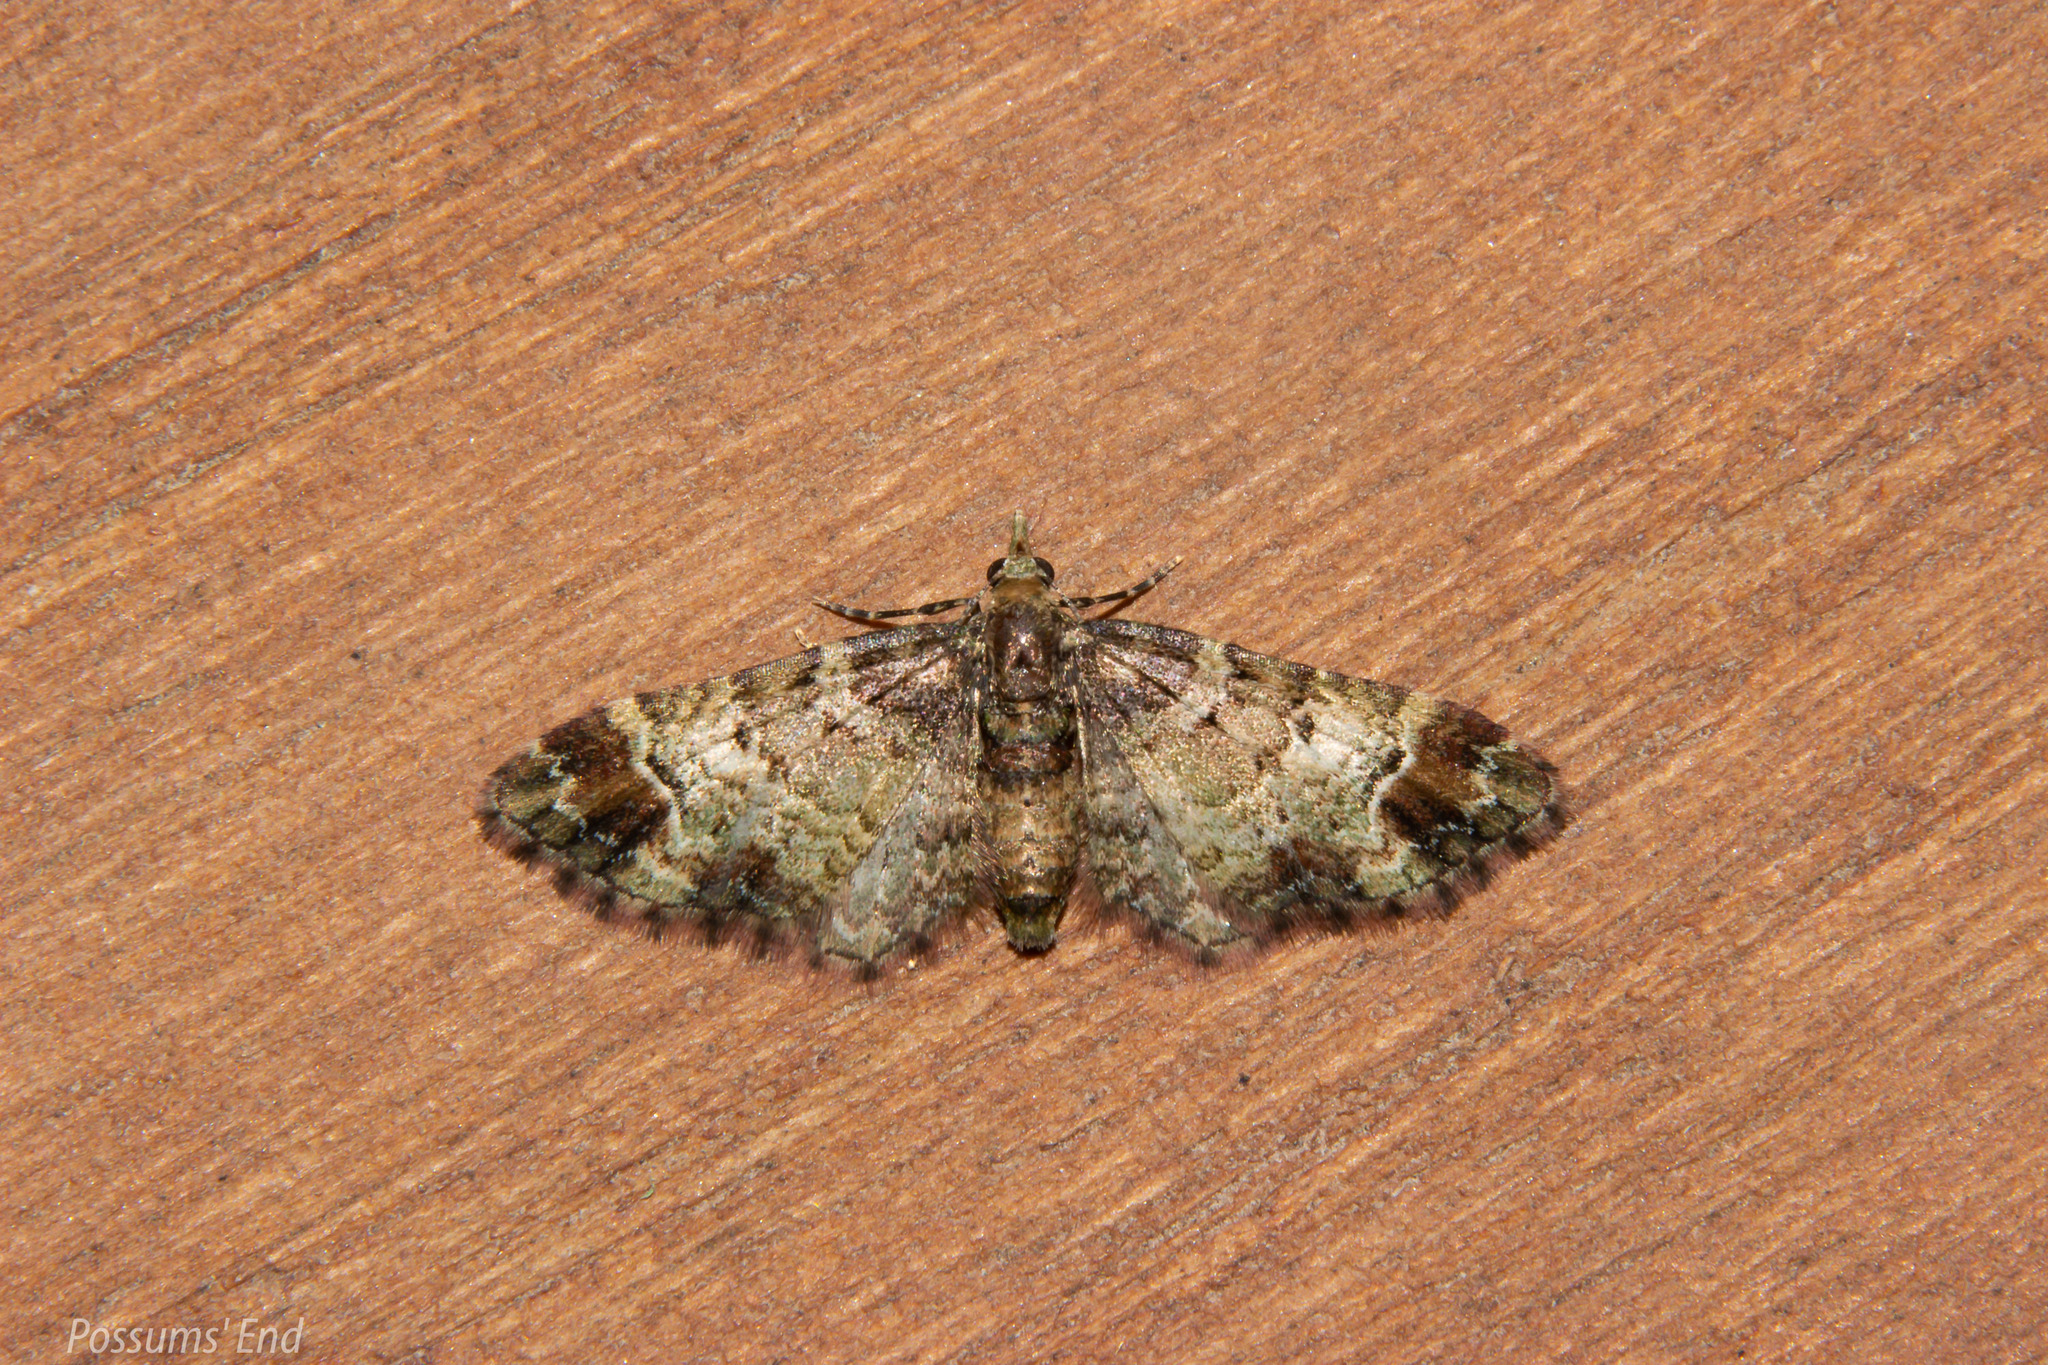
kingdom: Animalia
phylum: Arthropoda
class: Insecta
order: Lepidoptera
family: Geometridae
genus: Pasiphila
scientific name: Pasiphila sandycias
